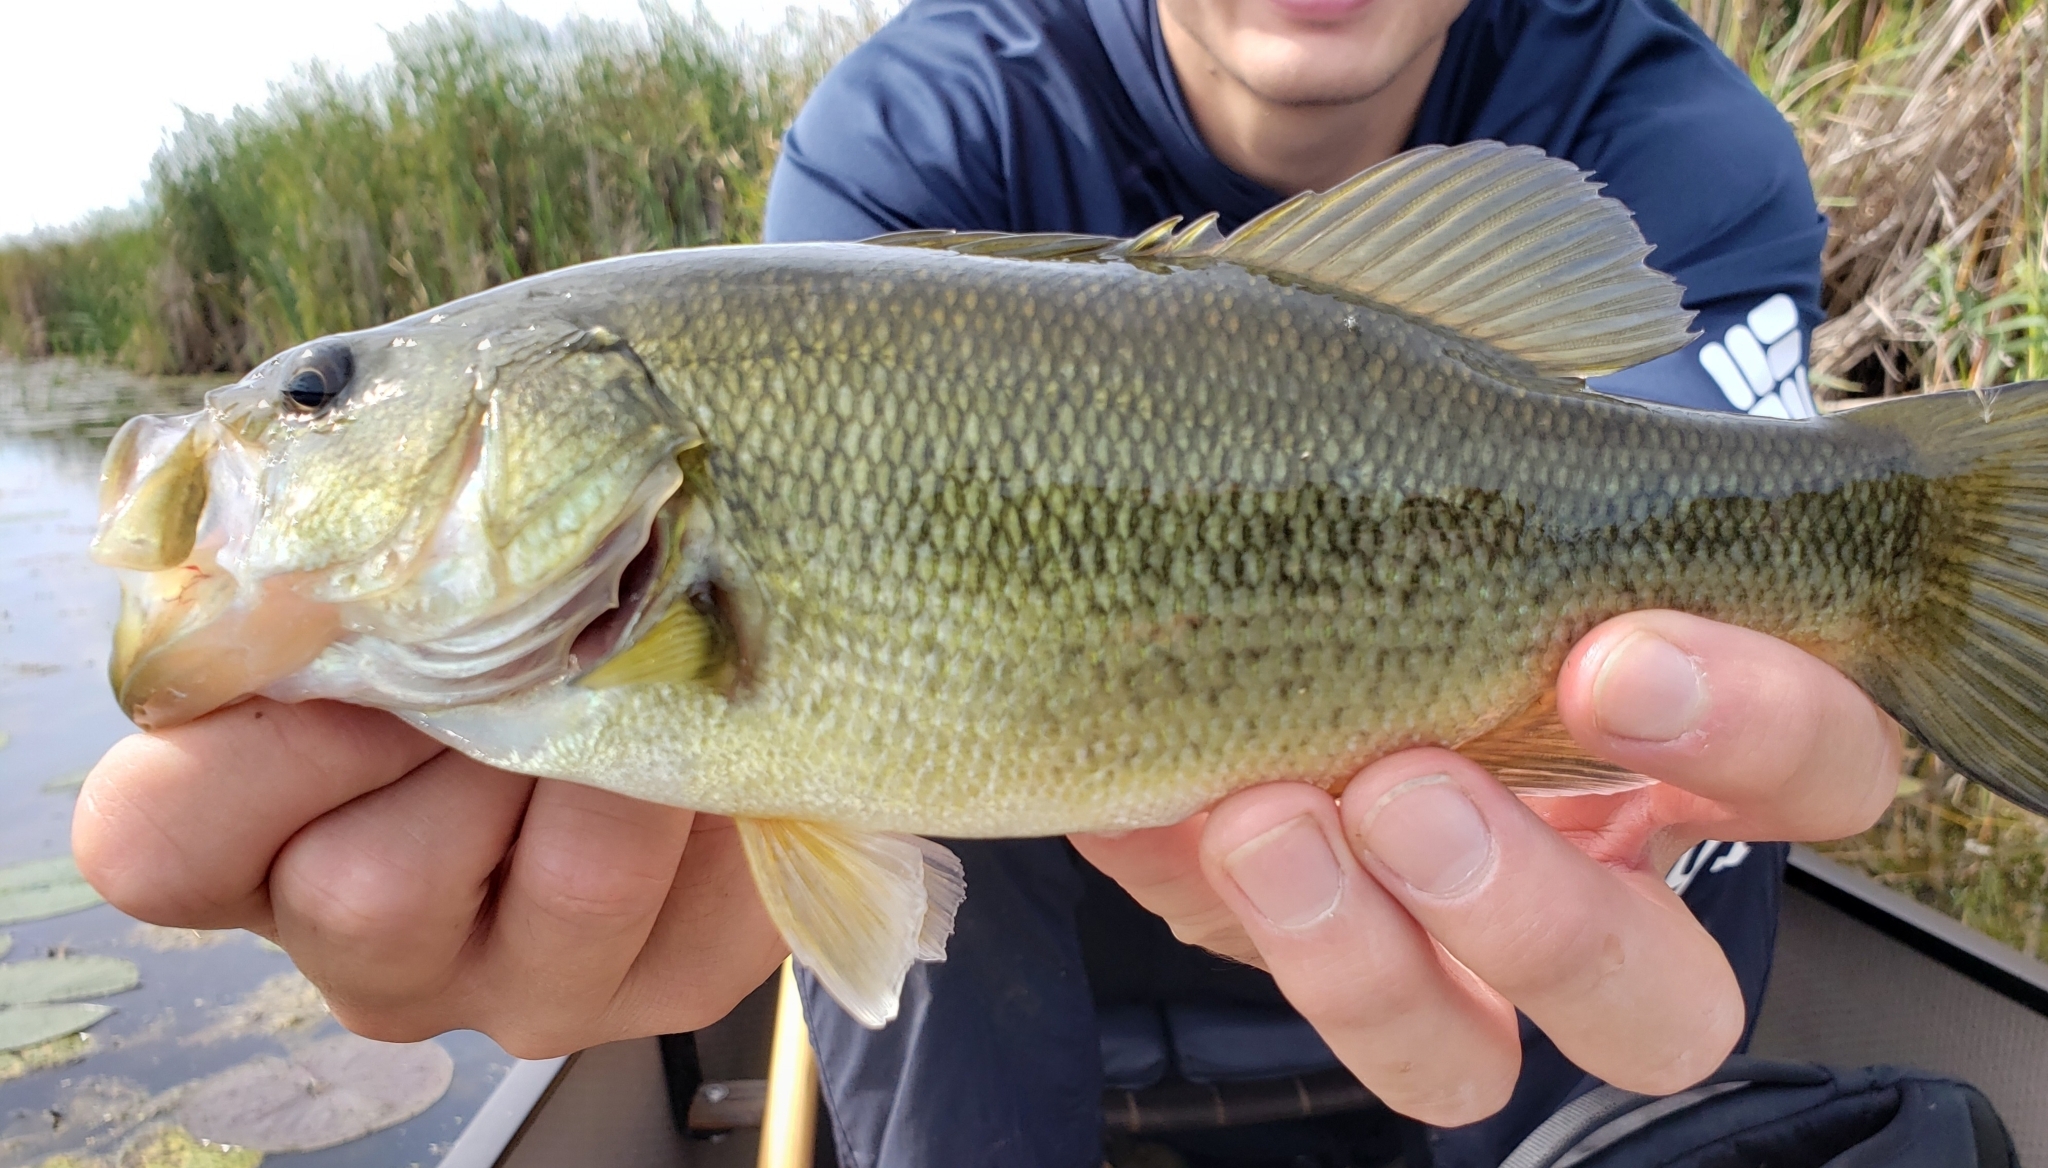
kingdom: Animalia
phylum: Chordata
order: Perciformes
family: Centrarchidae
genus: Micropterus
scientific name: Micropterus
